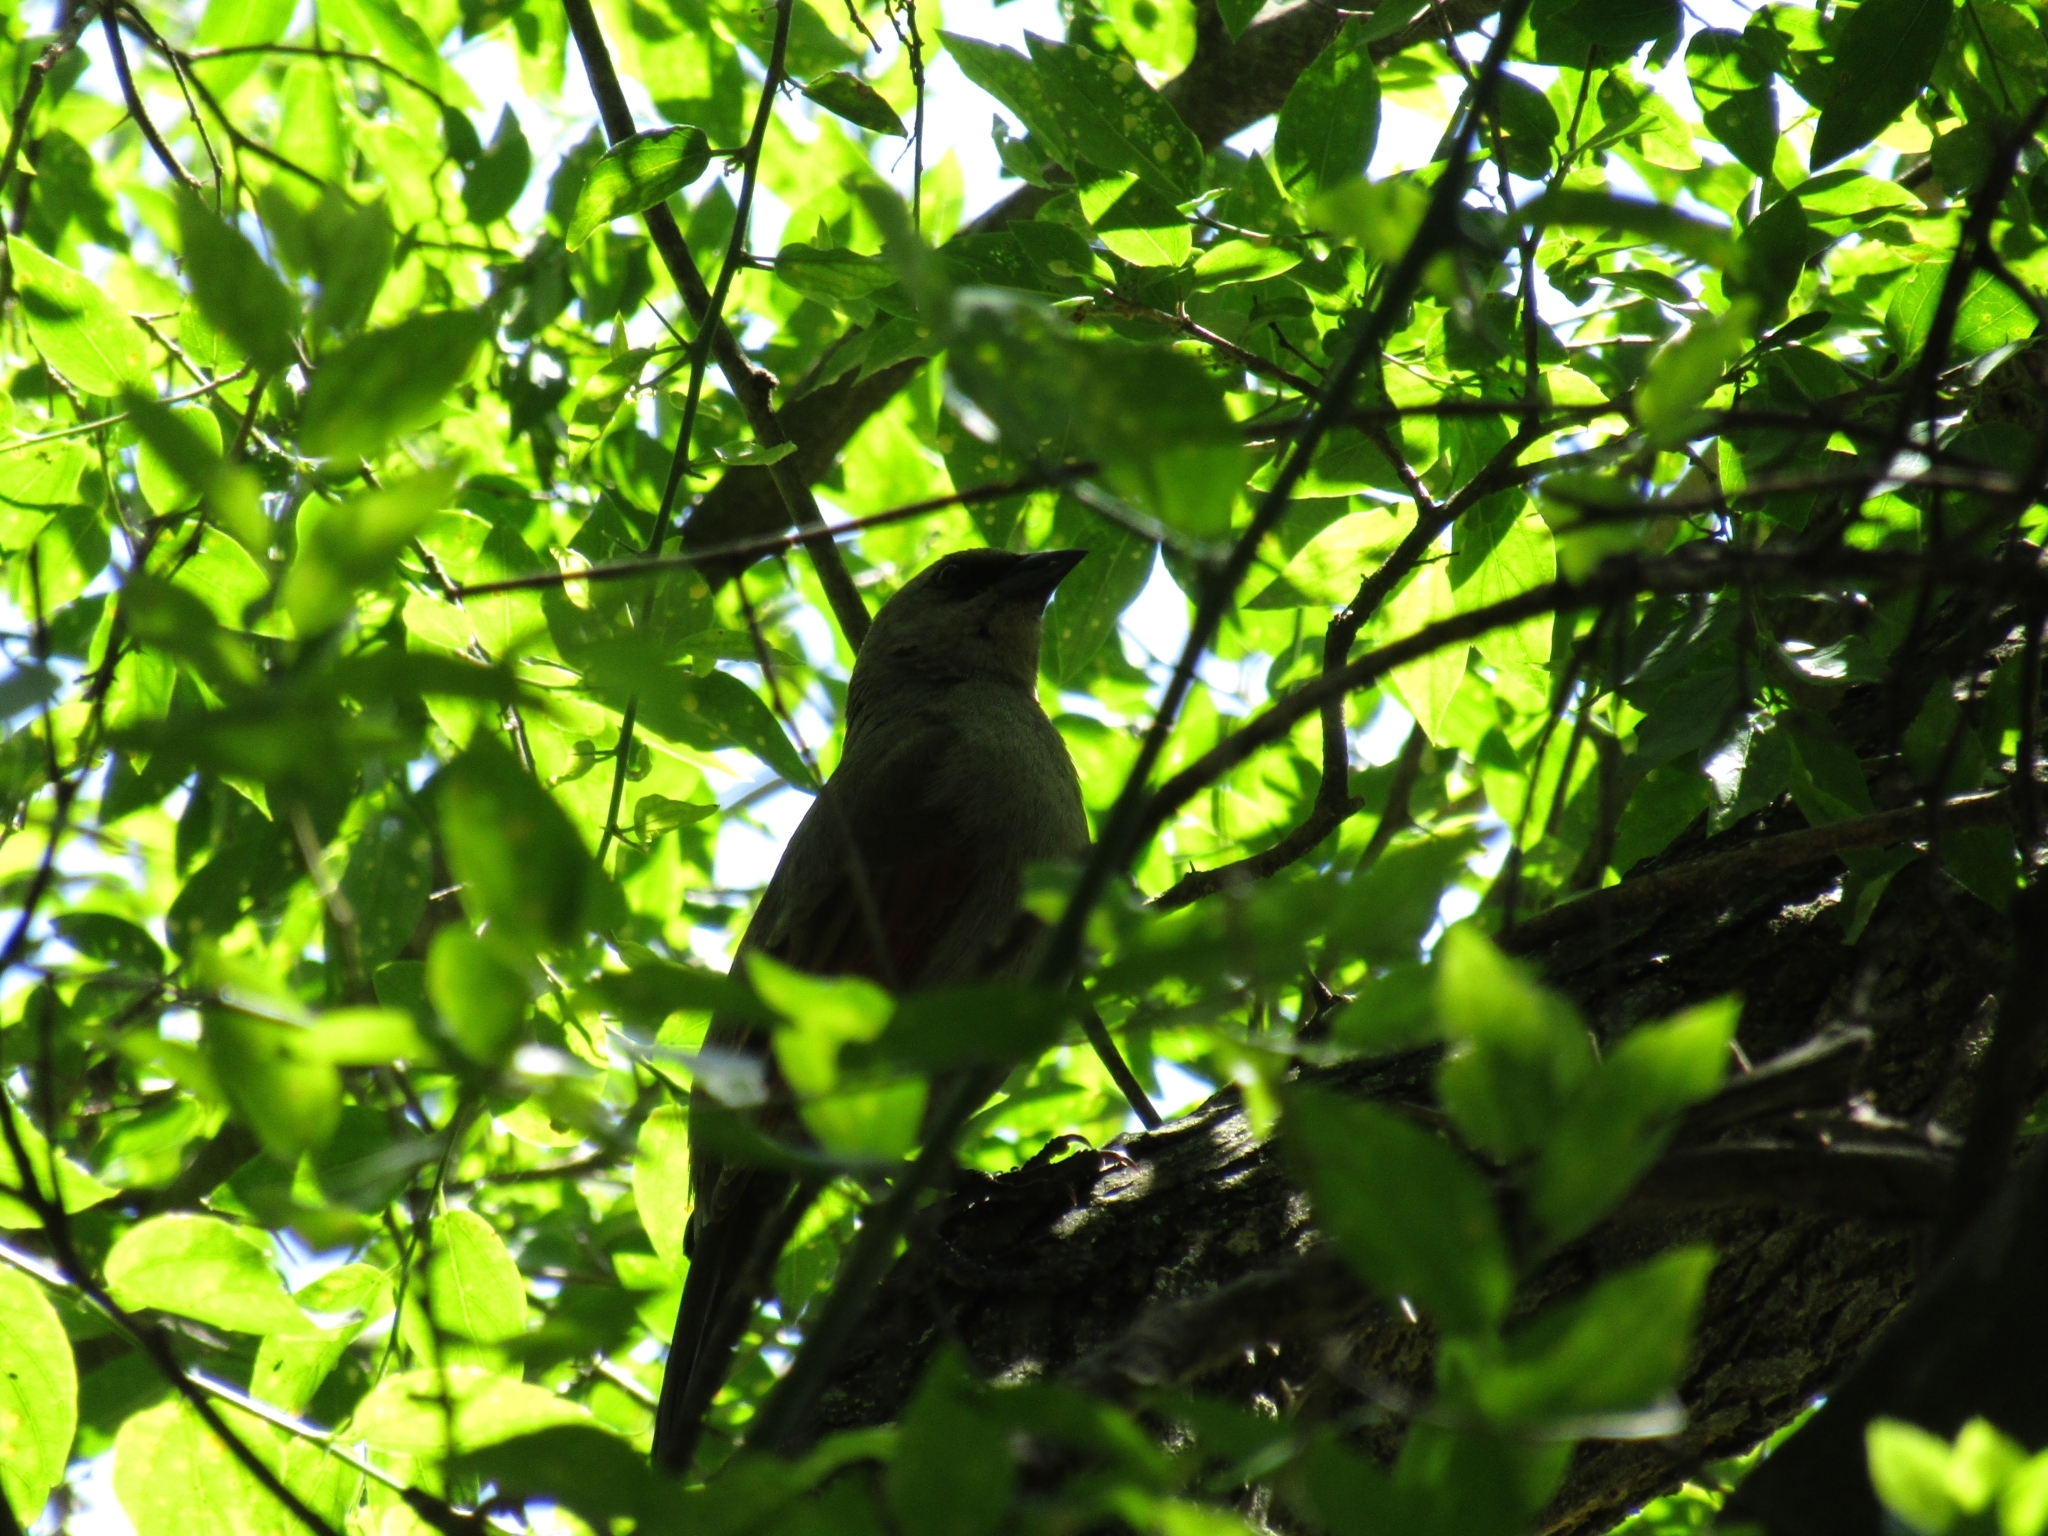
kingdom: Animalia
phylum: Chordata
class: Aves
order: Passeriformes
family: Icteridae
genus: Agelaioides
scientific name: Agelaioides badius
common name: Baywing
